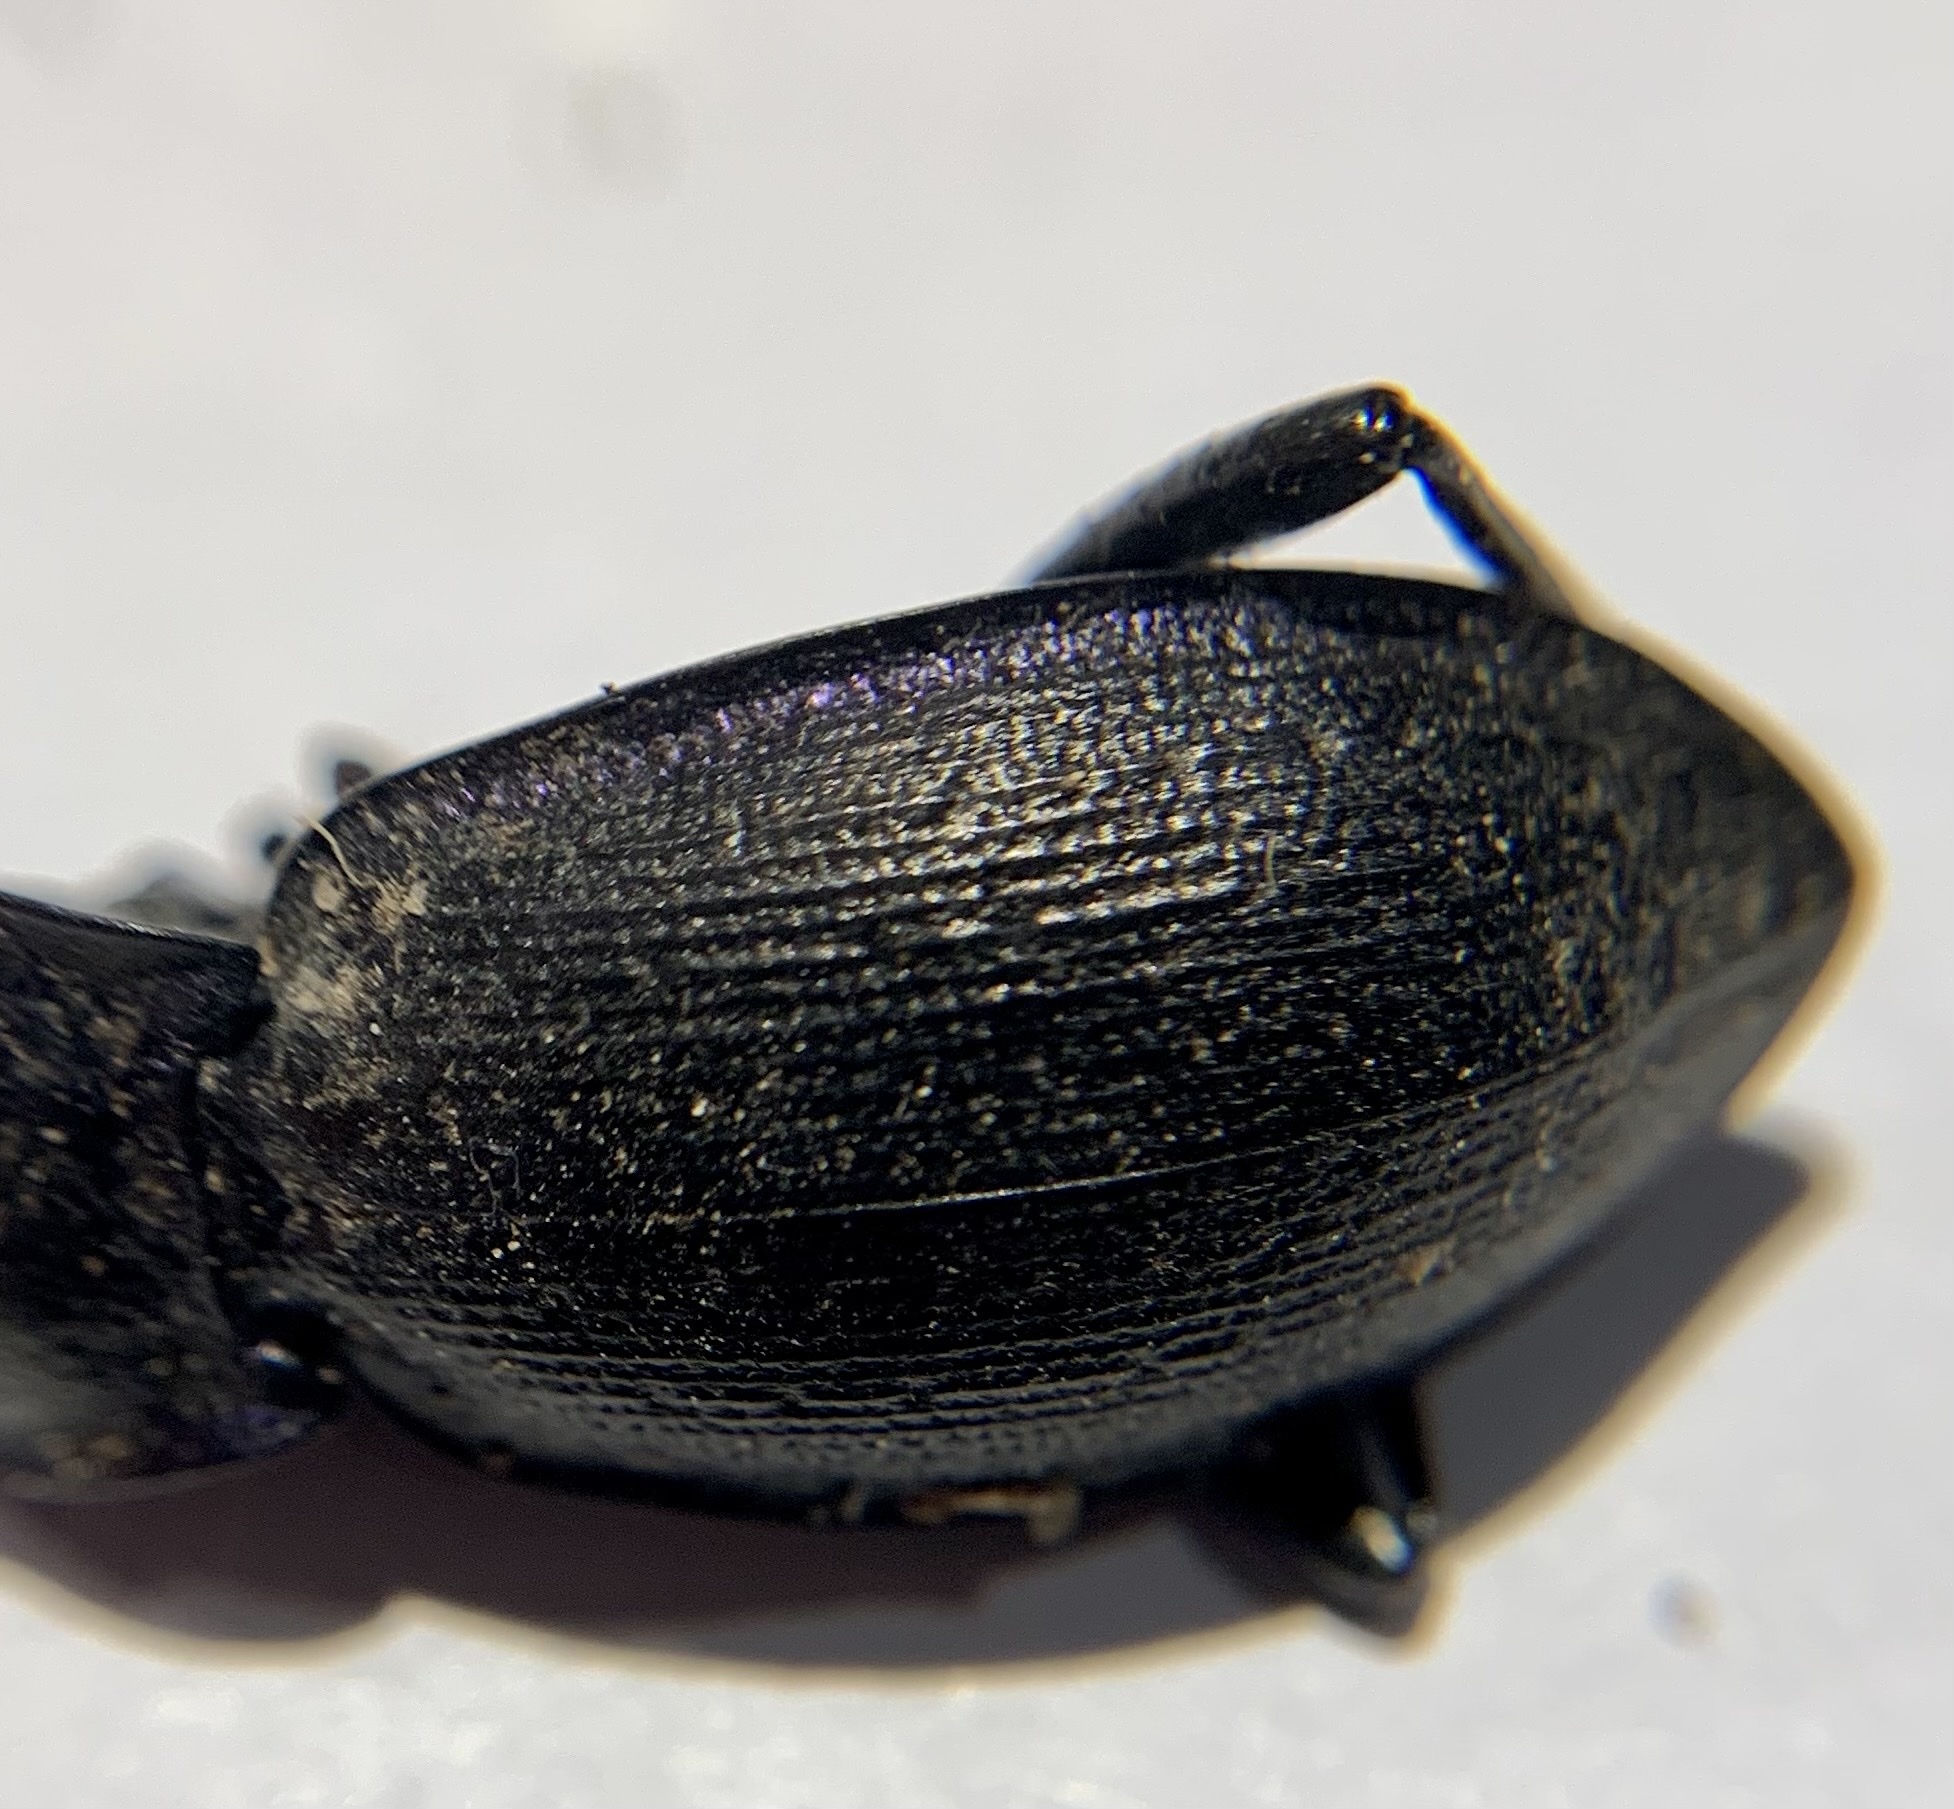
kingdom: Animalia
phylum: Arthropoda
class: Insecta
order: Coleoptera
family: Carabidae
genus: Carabus
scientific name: Carabus problematicus
